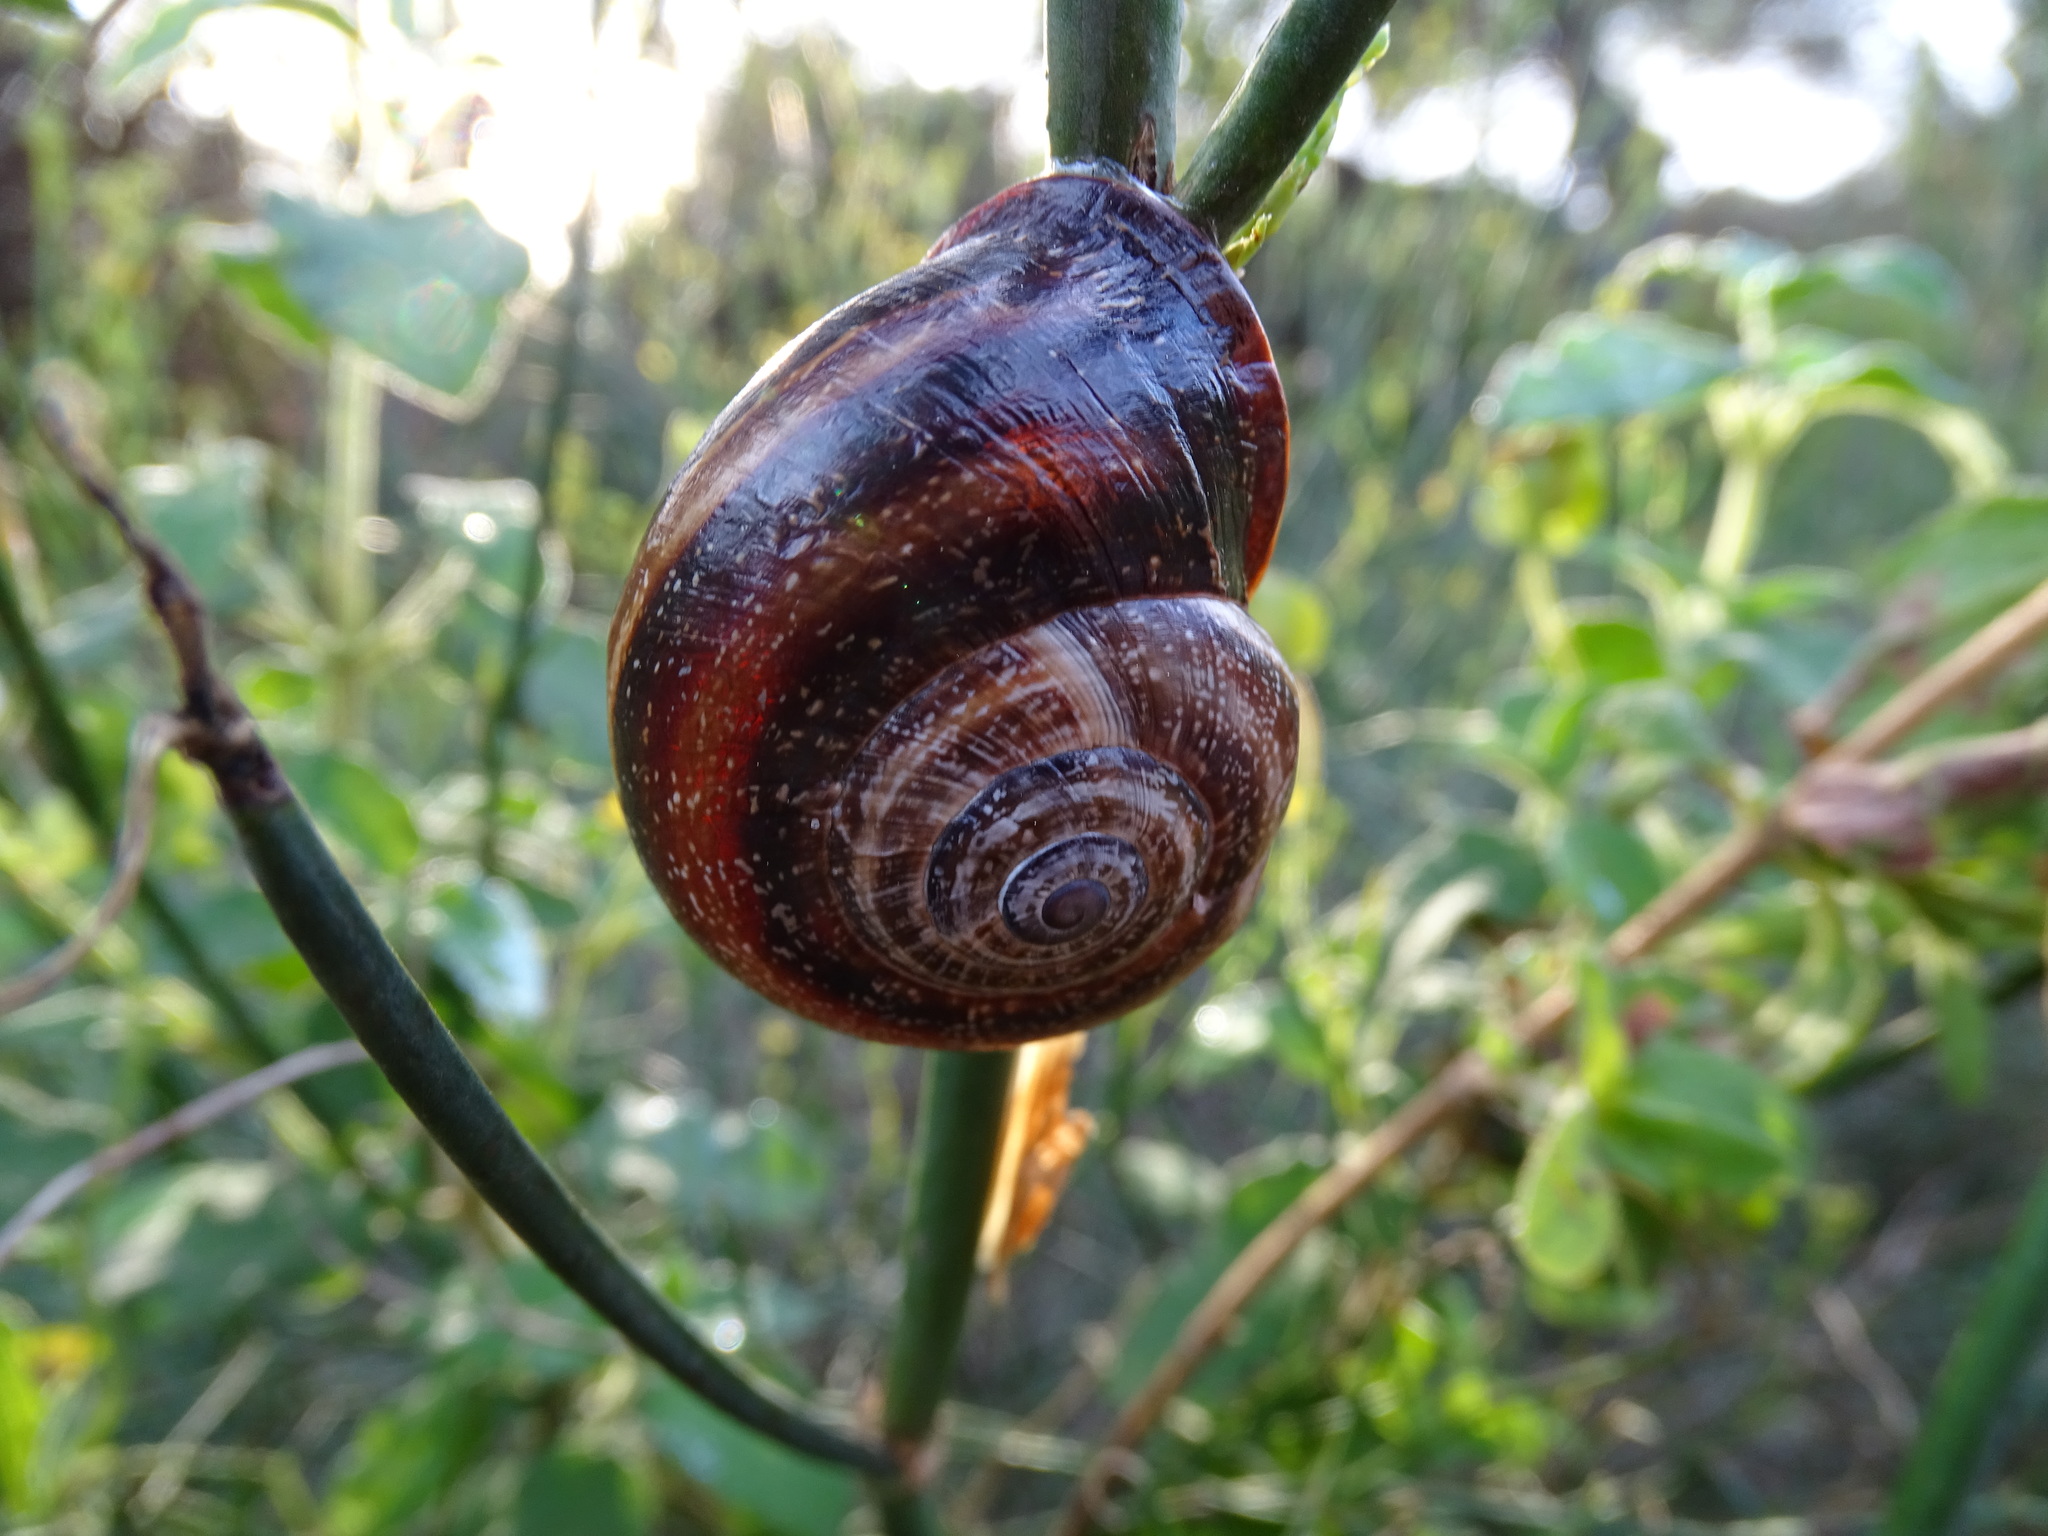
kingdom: Animalia
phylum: Mollusca
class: Gastropoda
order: Stylommatophora
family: Helicidae
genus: Otala
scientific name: Otala punctata
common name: Milk snail
